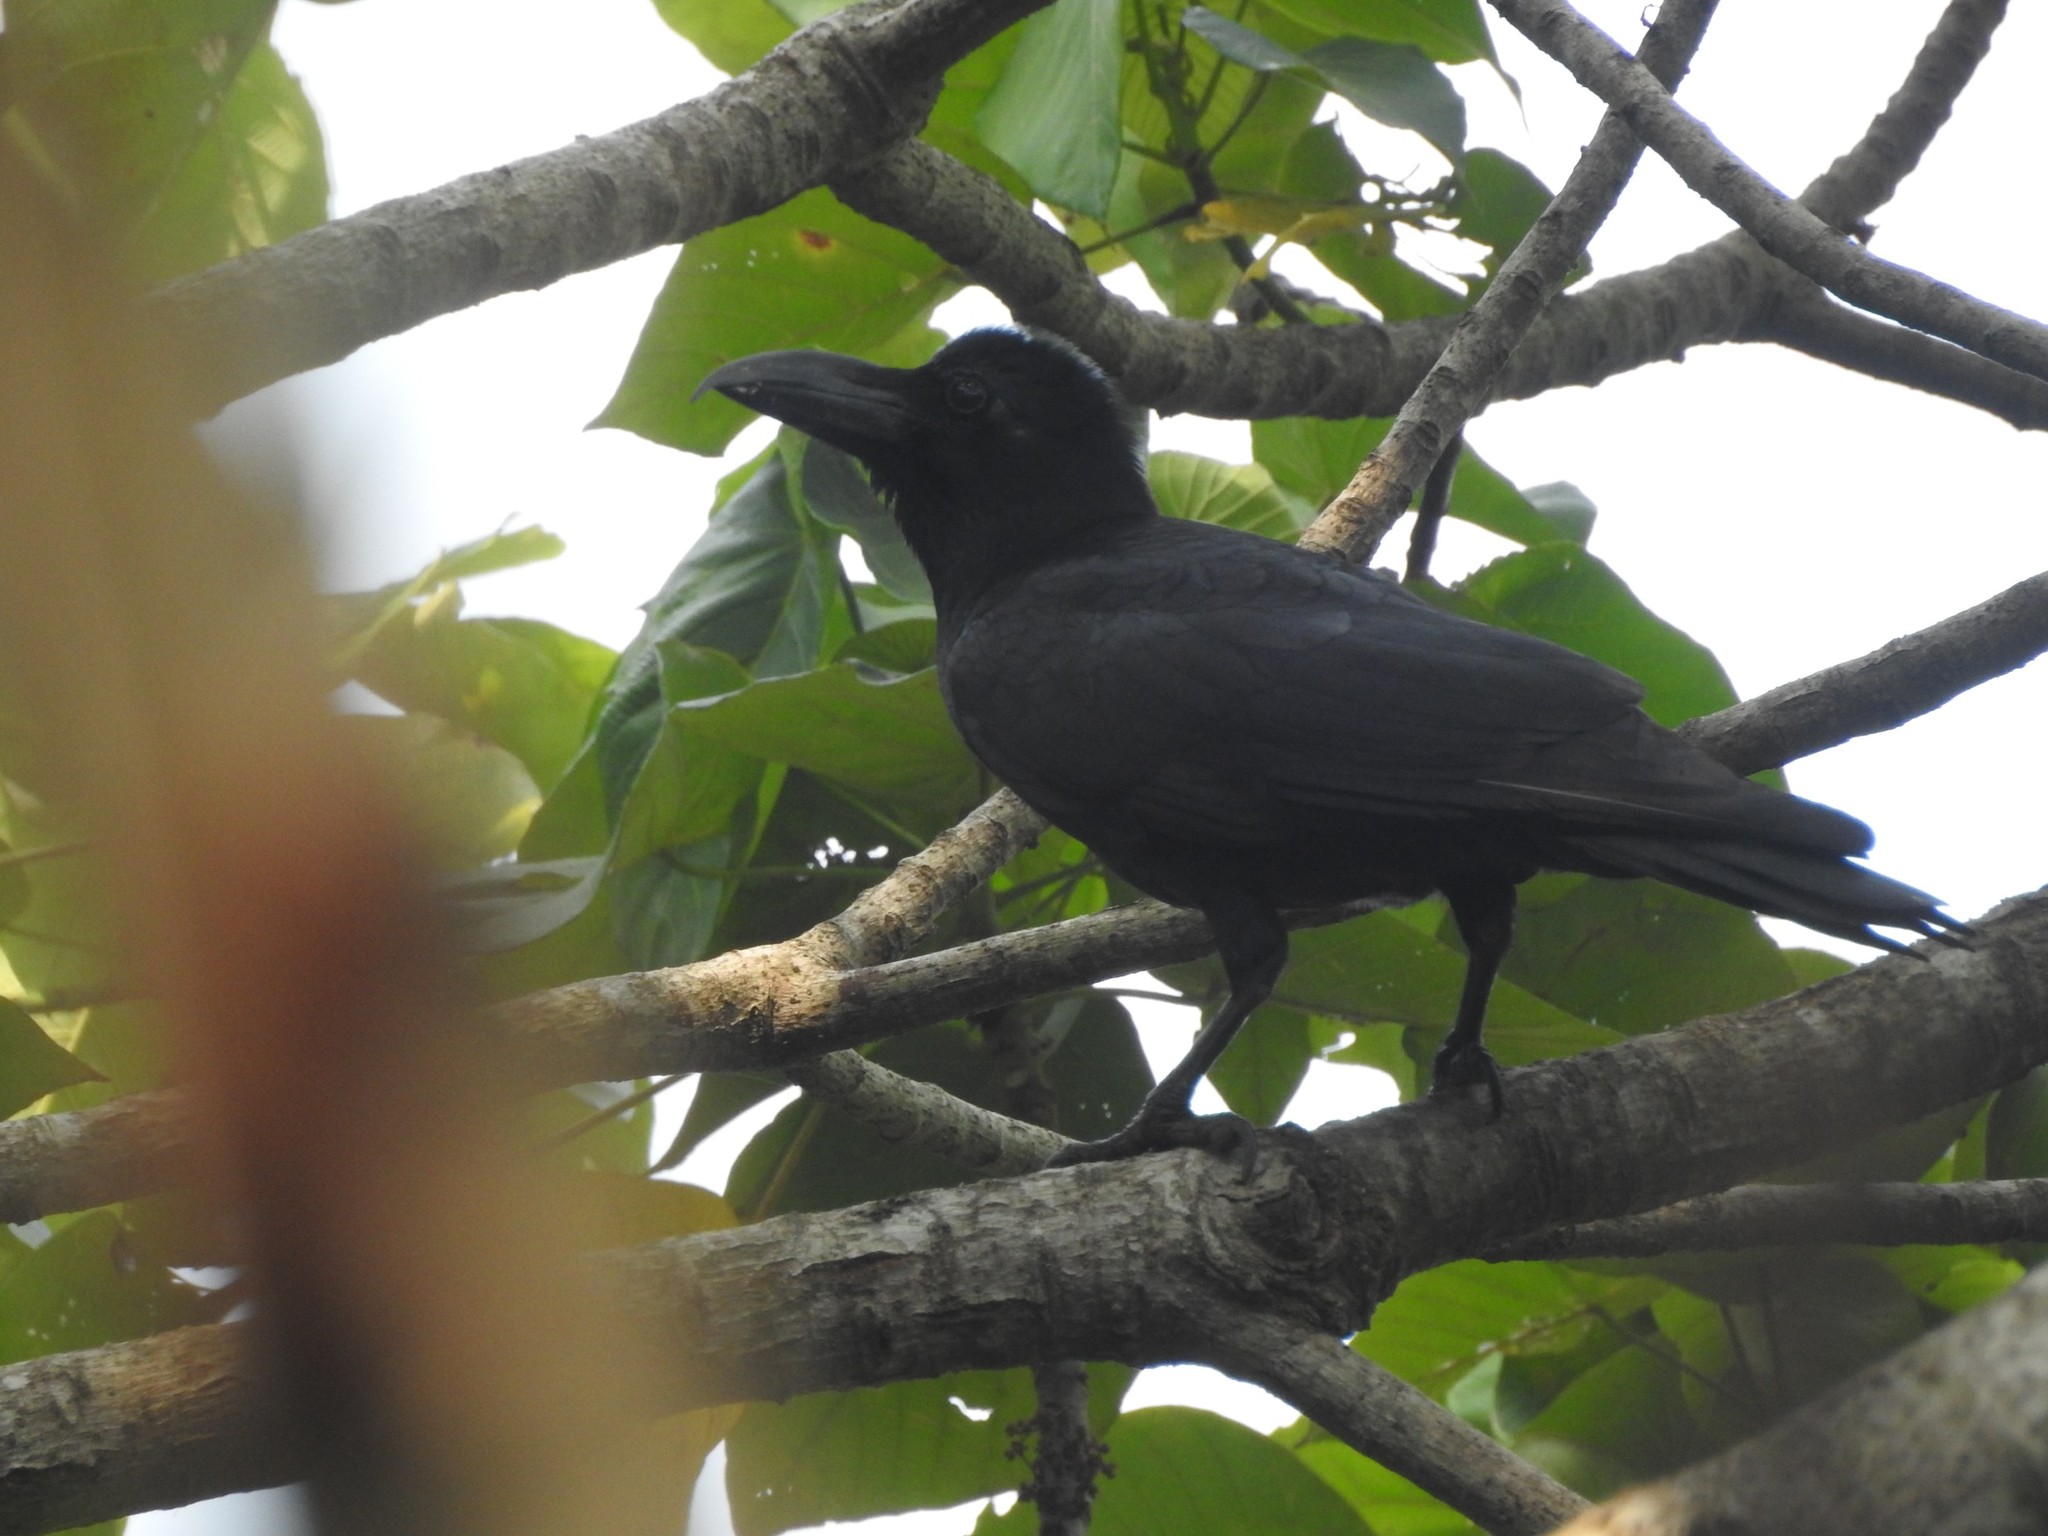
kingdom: Animalia
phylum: Chordata
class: Aves
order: Passeriformes
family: Corvidae
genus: Corvus
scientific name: Corvus macrorhynchos
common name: Large-billed crow
